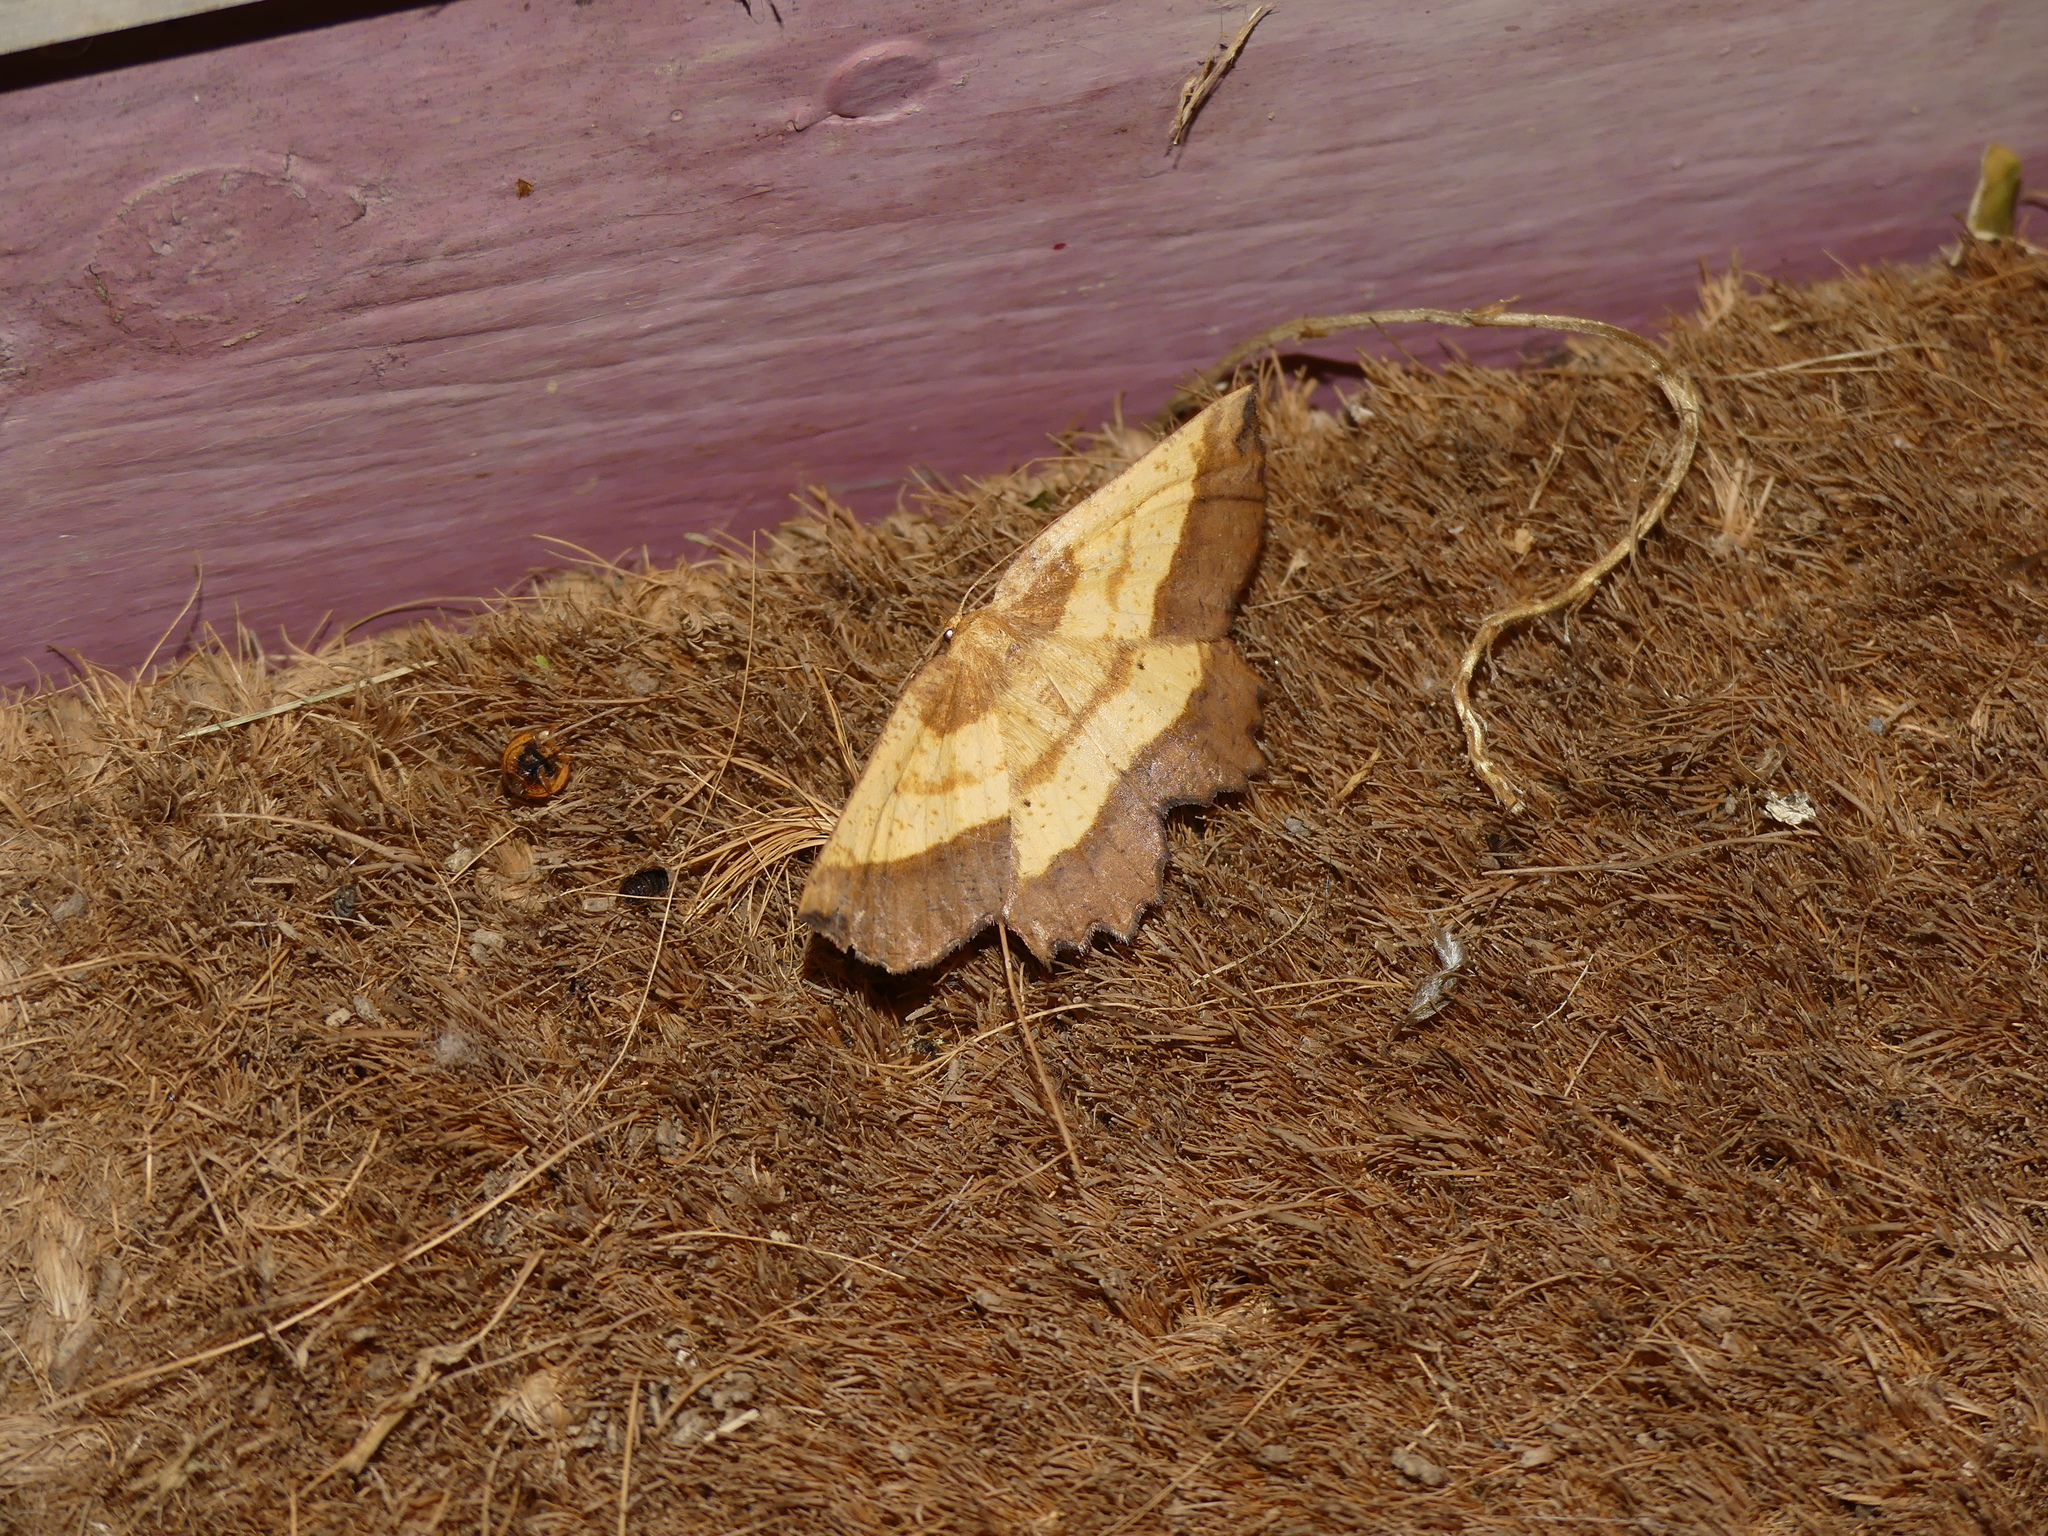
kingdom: Animalia
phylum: Arthropoda
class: Insecta
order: Lepidoptera
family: Geometridae
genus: Euchlaena
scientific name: Euchlaena serrata
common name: Saw wing
